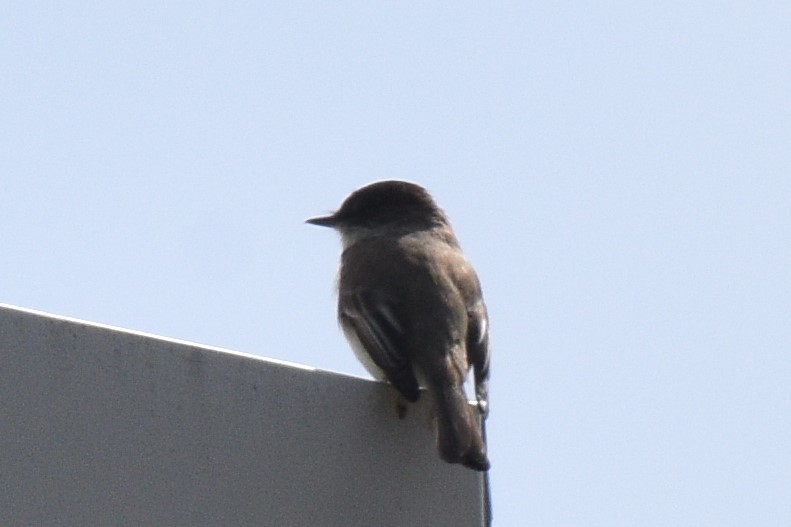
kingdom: Animalia
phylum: Chordata
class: Aves
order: Passeriformes
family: Tyrannidae
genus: Sayornis
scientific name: Sayornis phoebe
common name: Eastern phoebe
